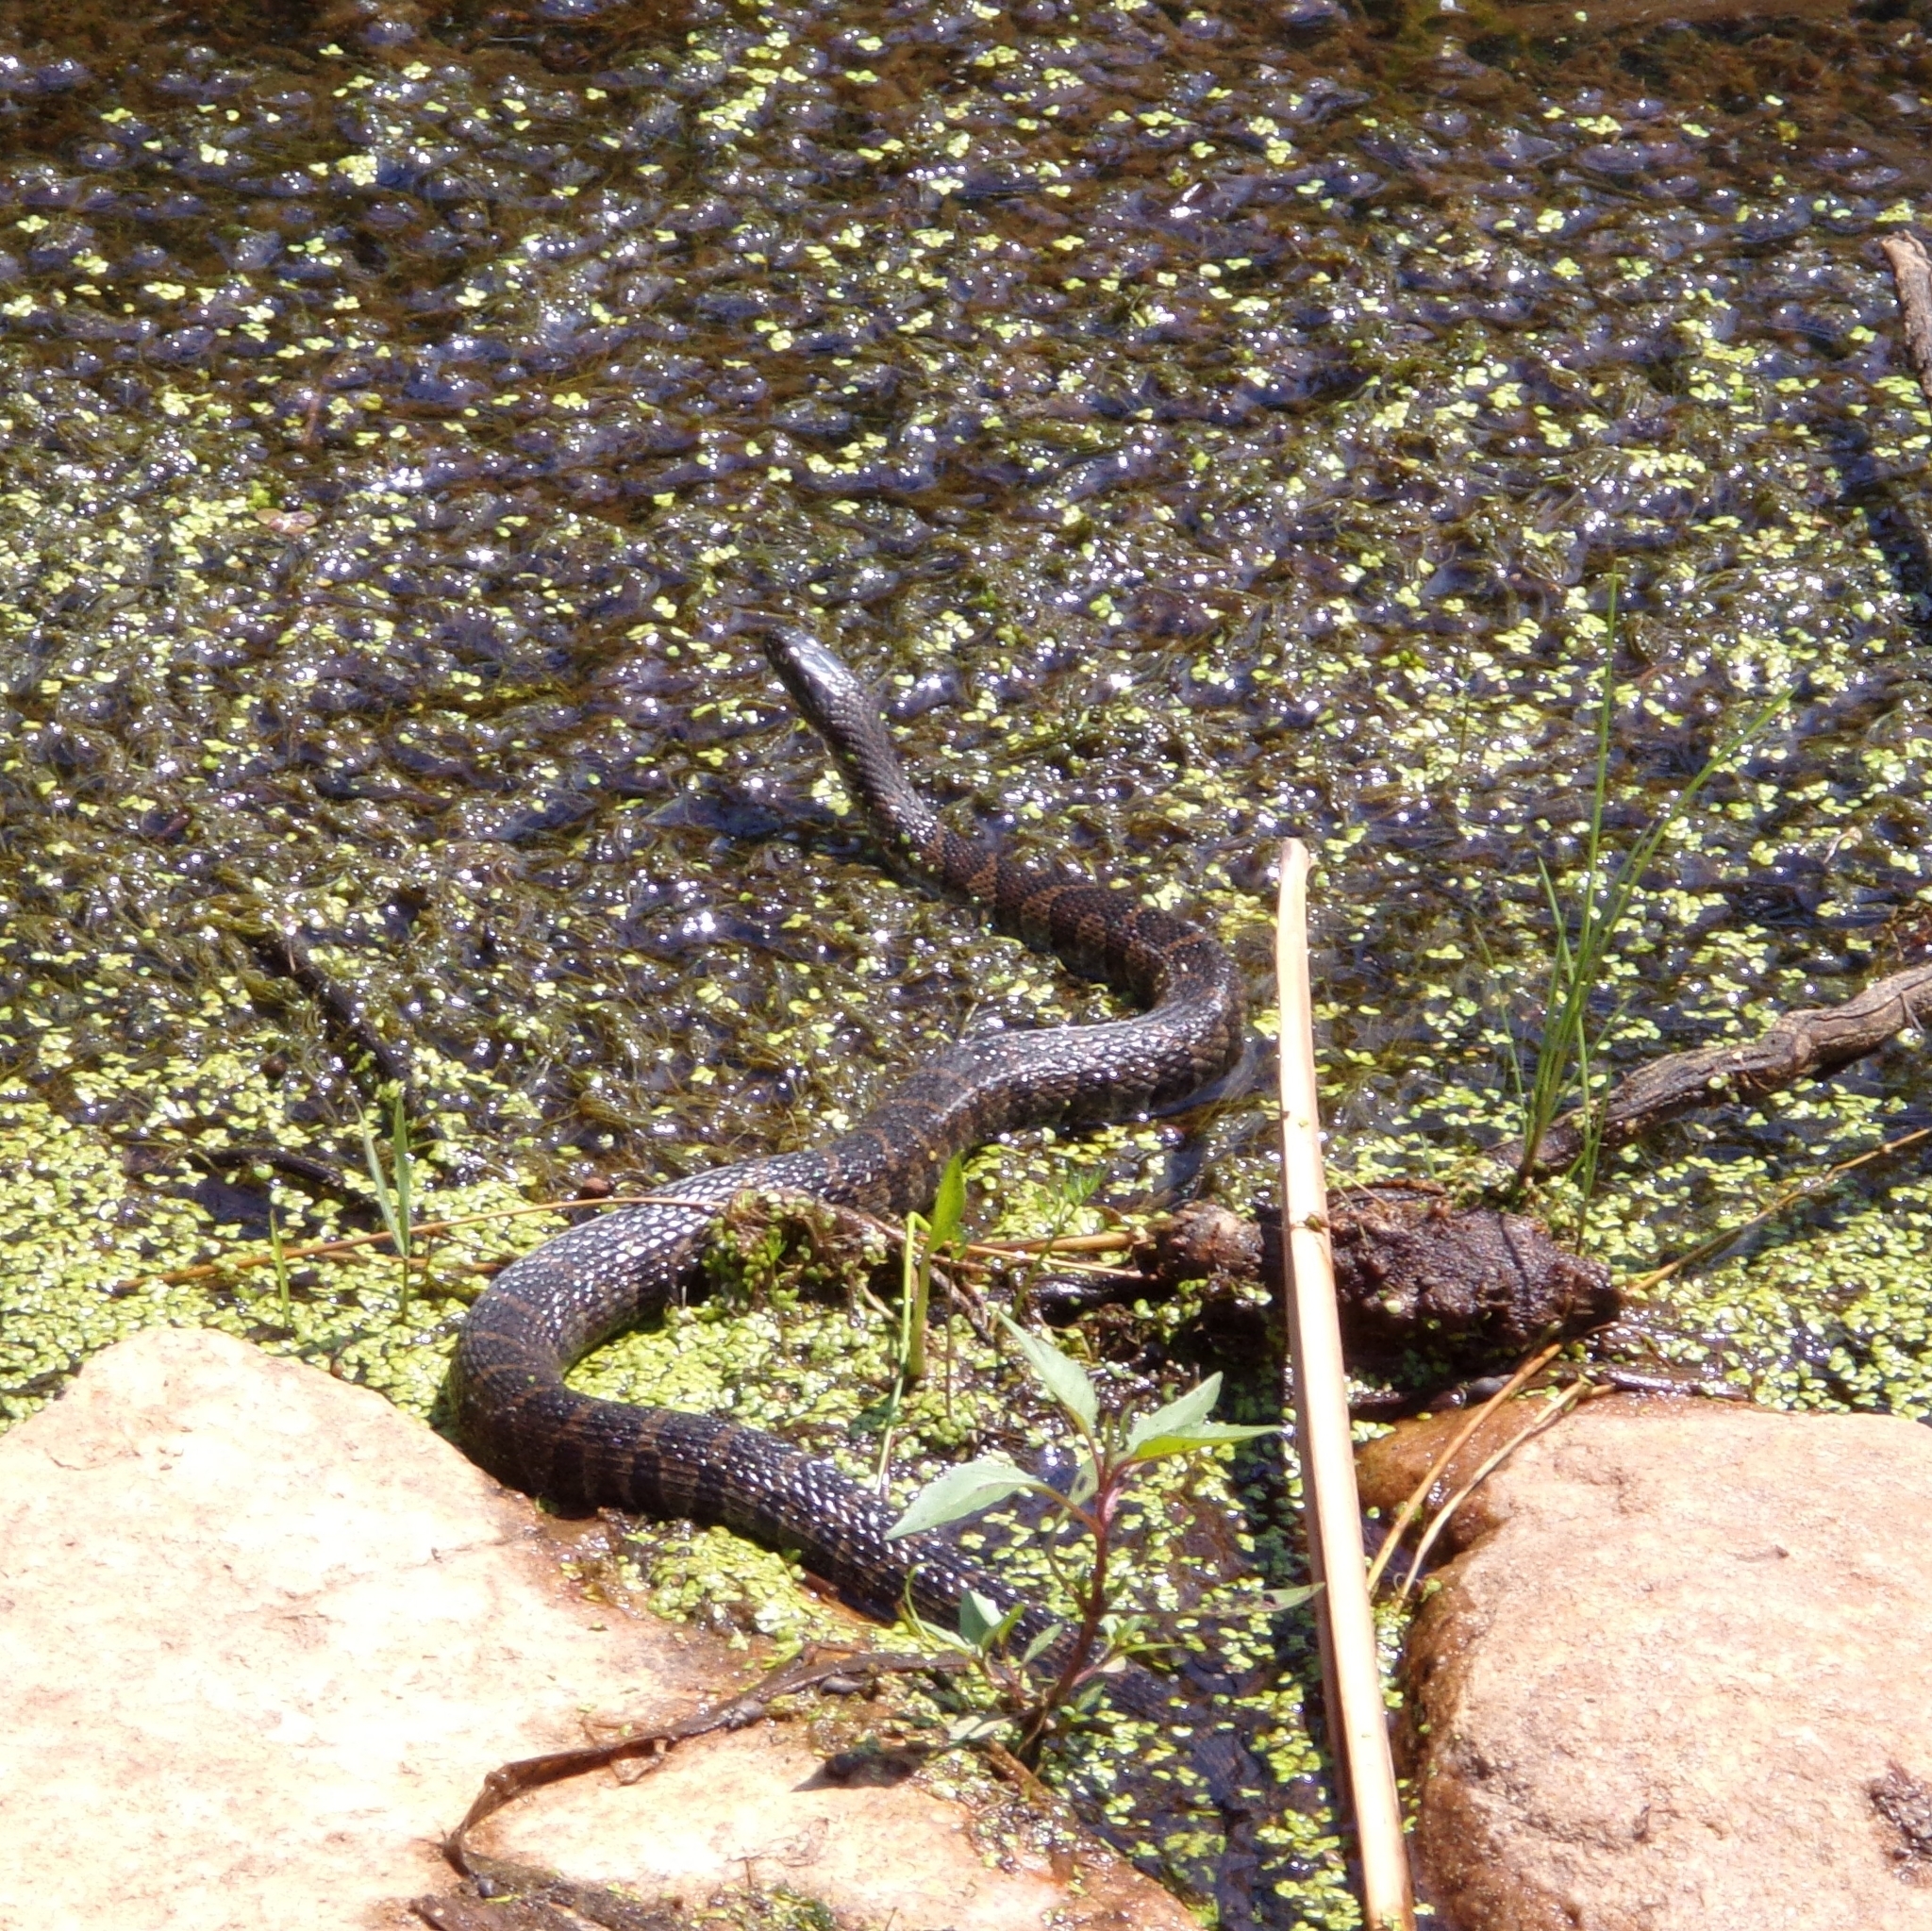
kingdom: Animalia
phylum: Chordata
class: Squamata
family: Colubridae
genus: Nerodia
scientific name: Nerodia sipedon
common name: Northern water snake
